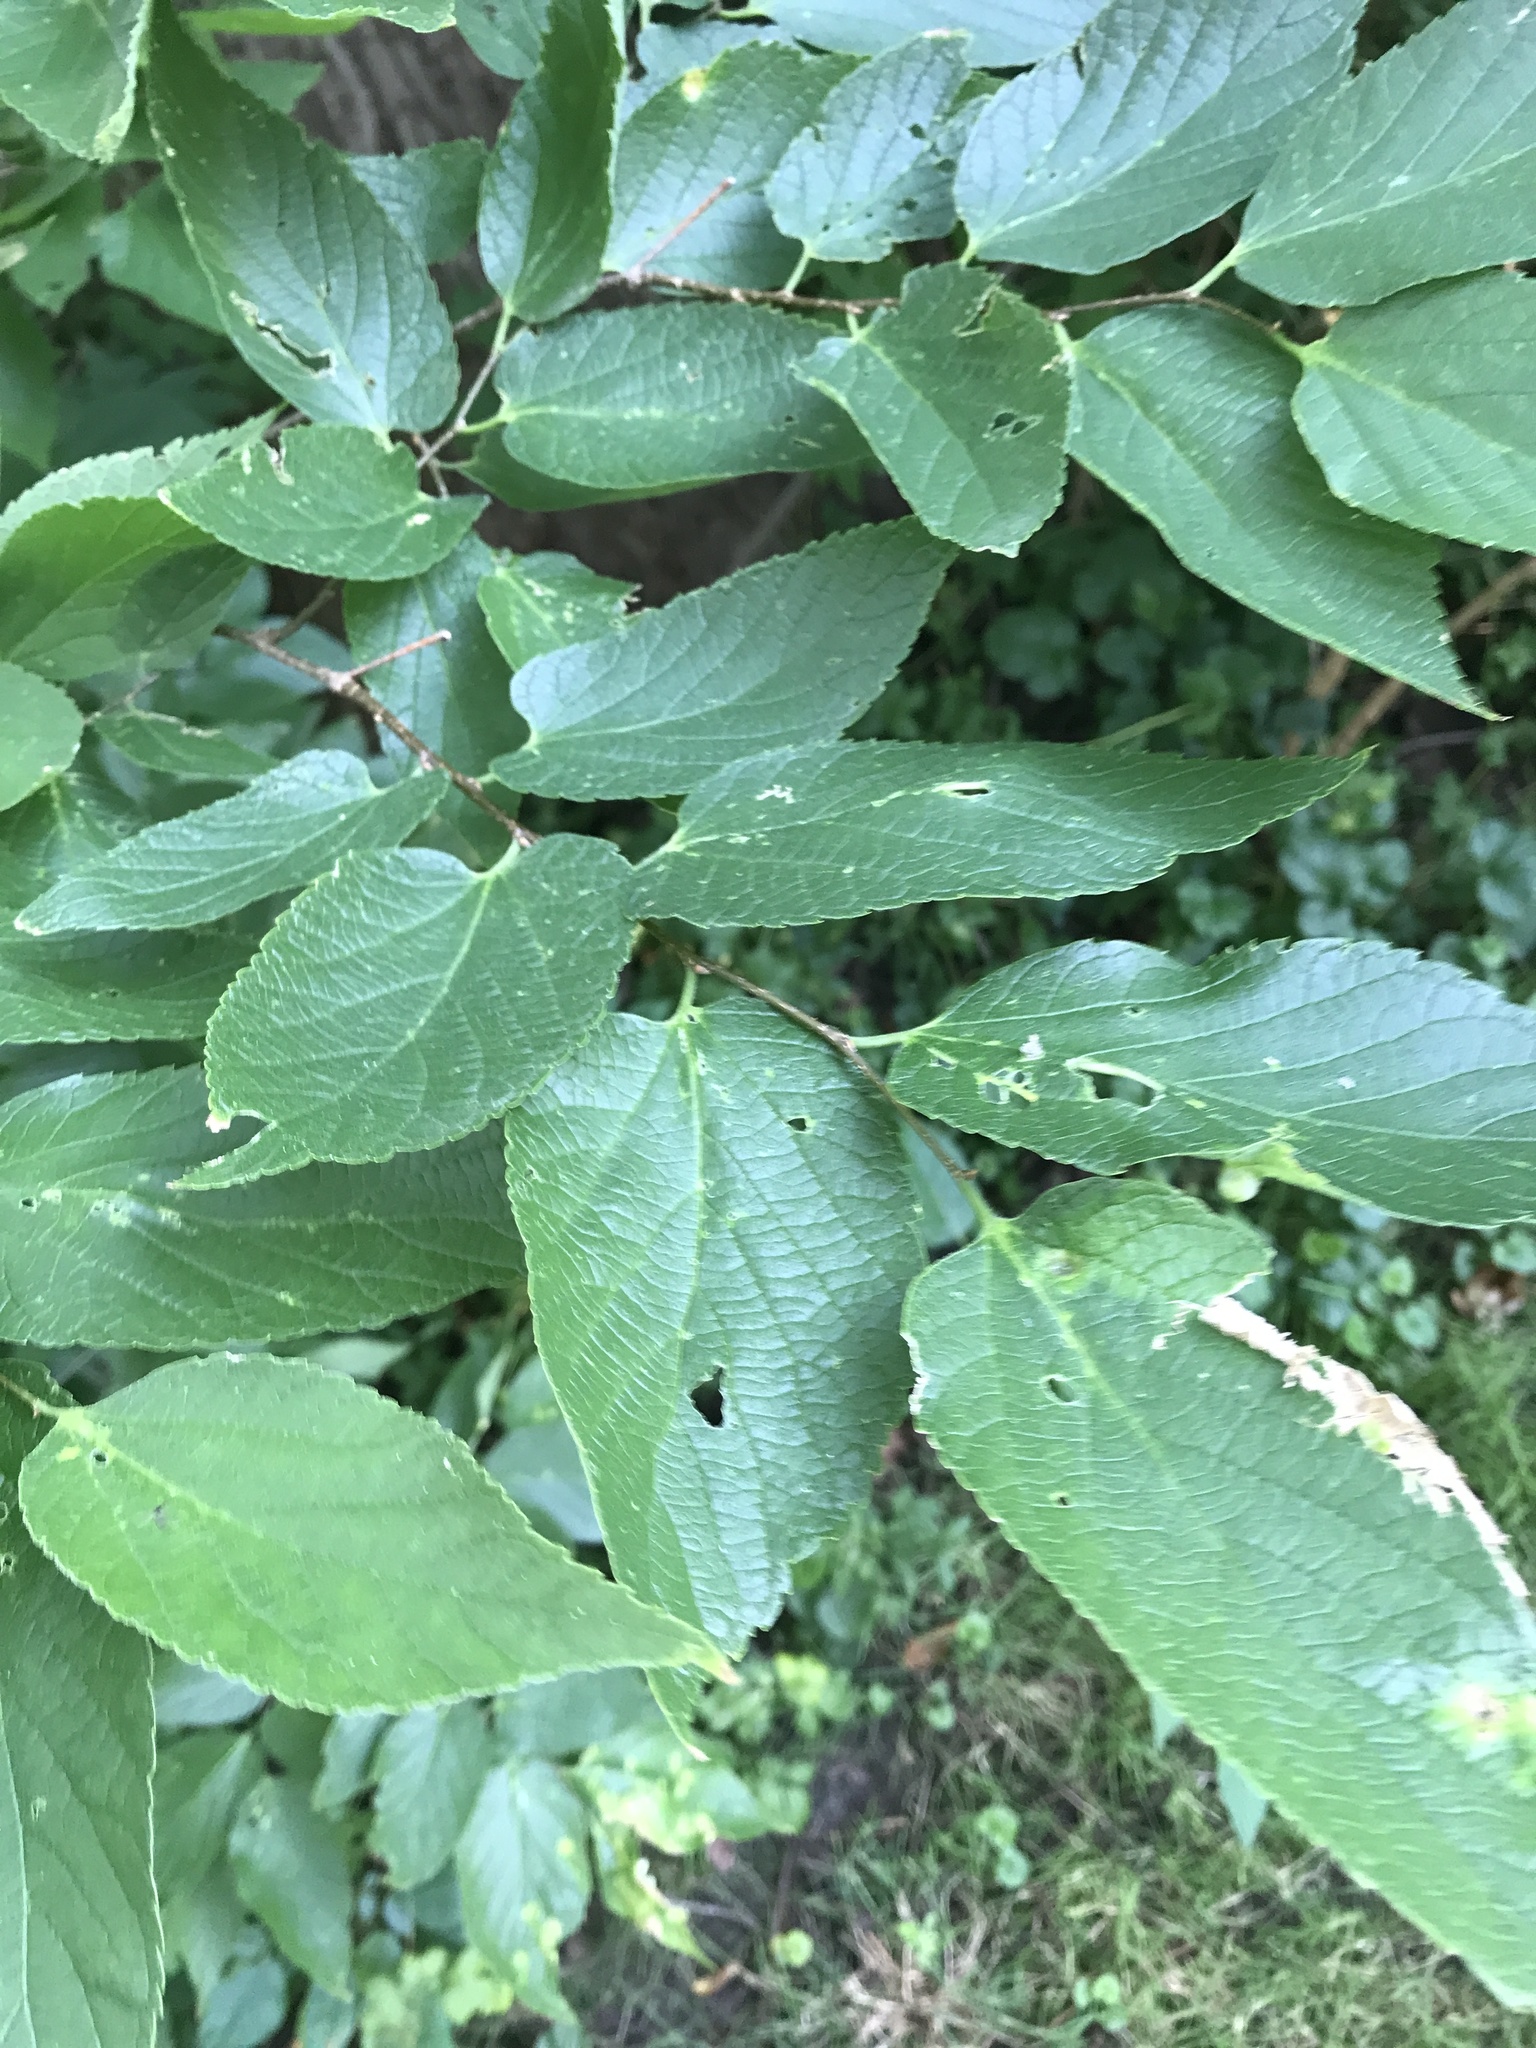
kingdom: Plantae
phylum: Tracheophyta
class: Magnoliopsida
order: Rosales
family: Cannabaceae
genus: Celtis
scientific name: Celtis reticulata
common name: Netleaf hackberry
